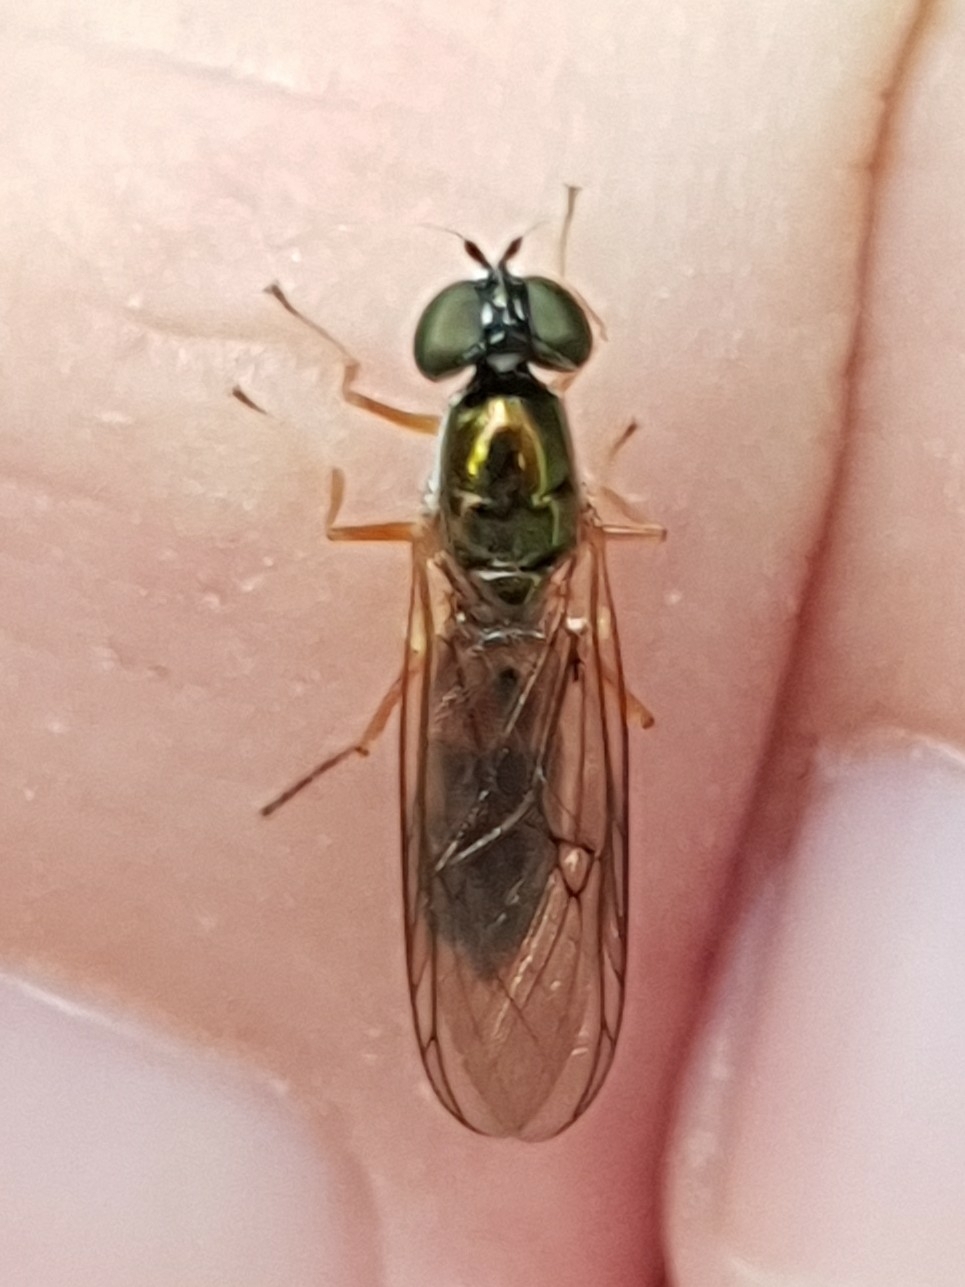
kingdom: Animalia
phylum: Arthropoda
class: Insecta
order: Diptera
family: Stratiomyidae
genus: Sargus
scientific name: Sargus bipunctatus
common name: Twin-spot centurion
